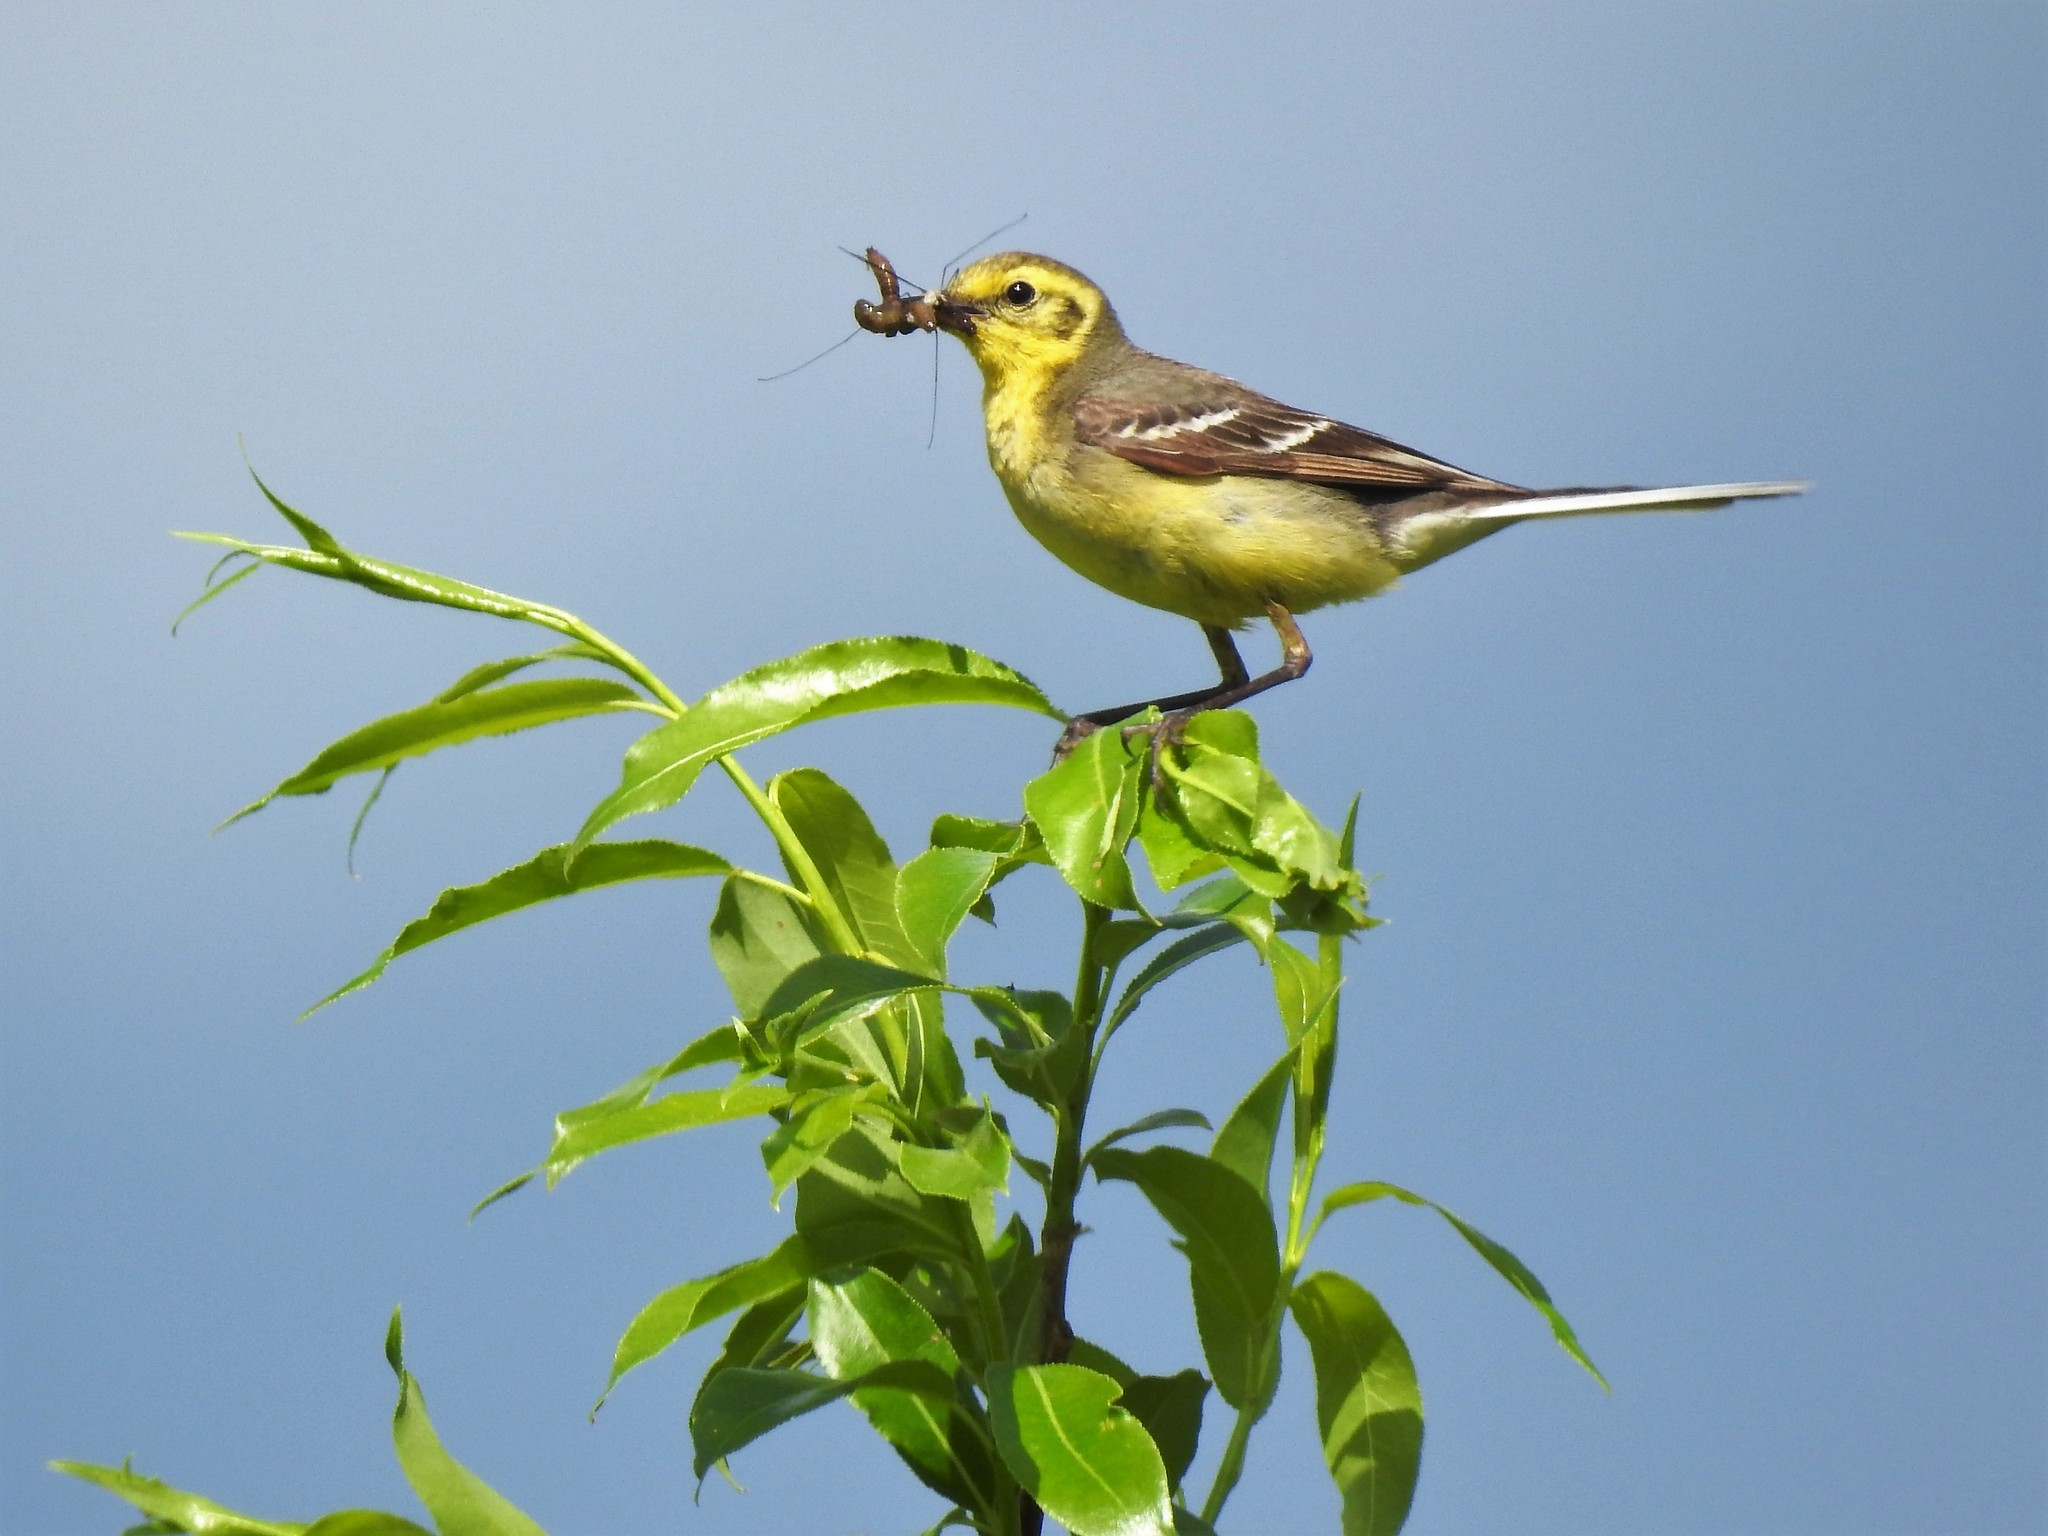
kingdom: Animalia
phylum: Chordata
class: Aves
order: Passeriformes
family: Motacillidae
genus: Motacilla
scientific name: Motacilla citreola
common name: Citrine wagtail
